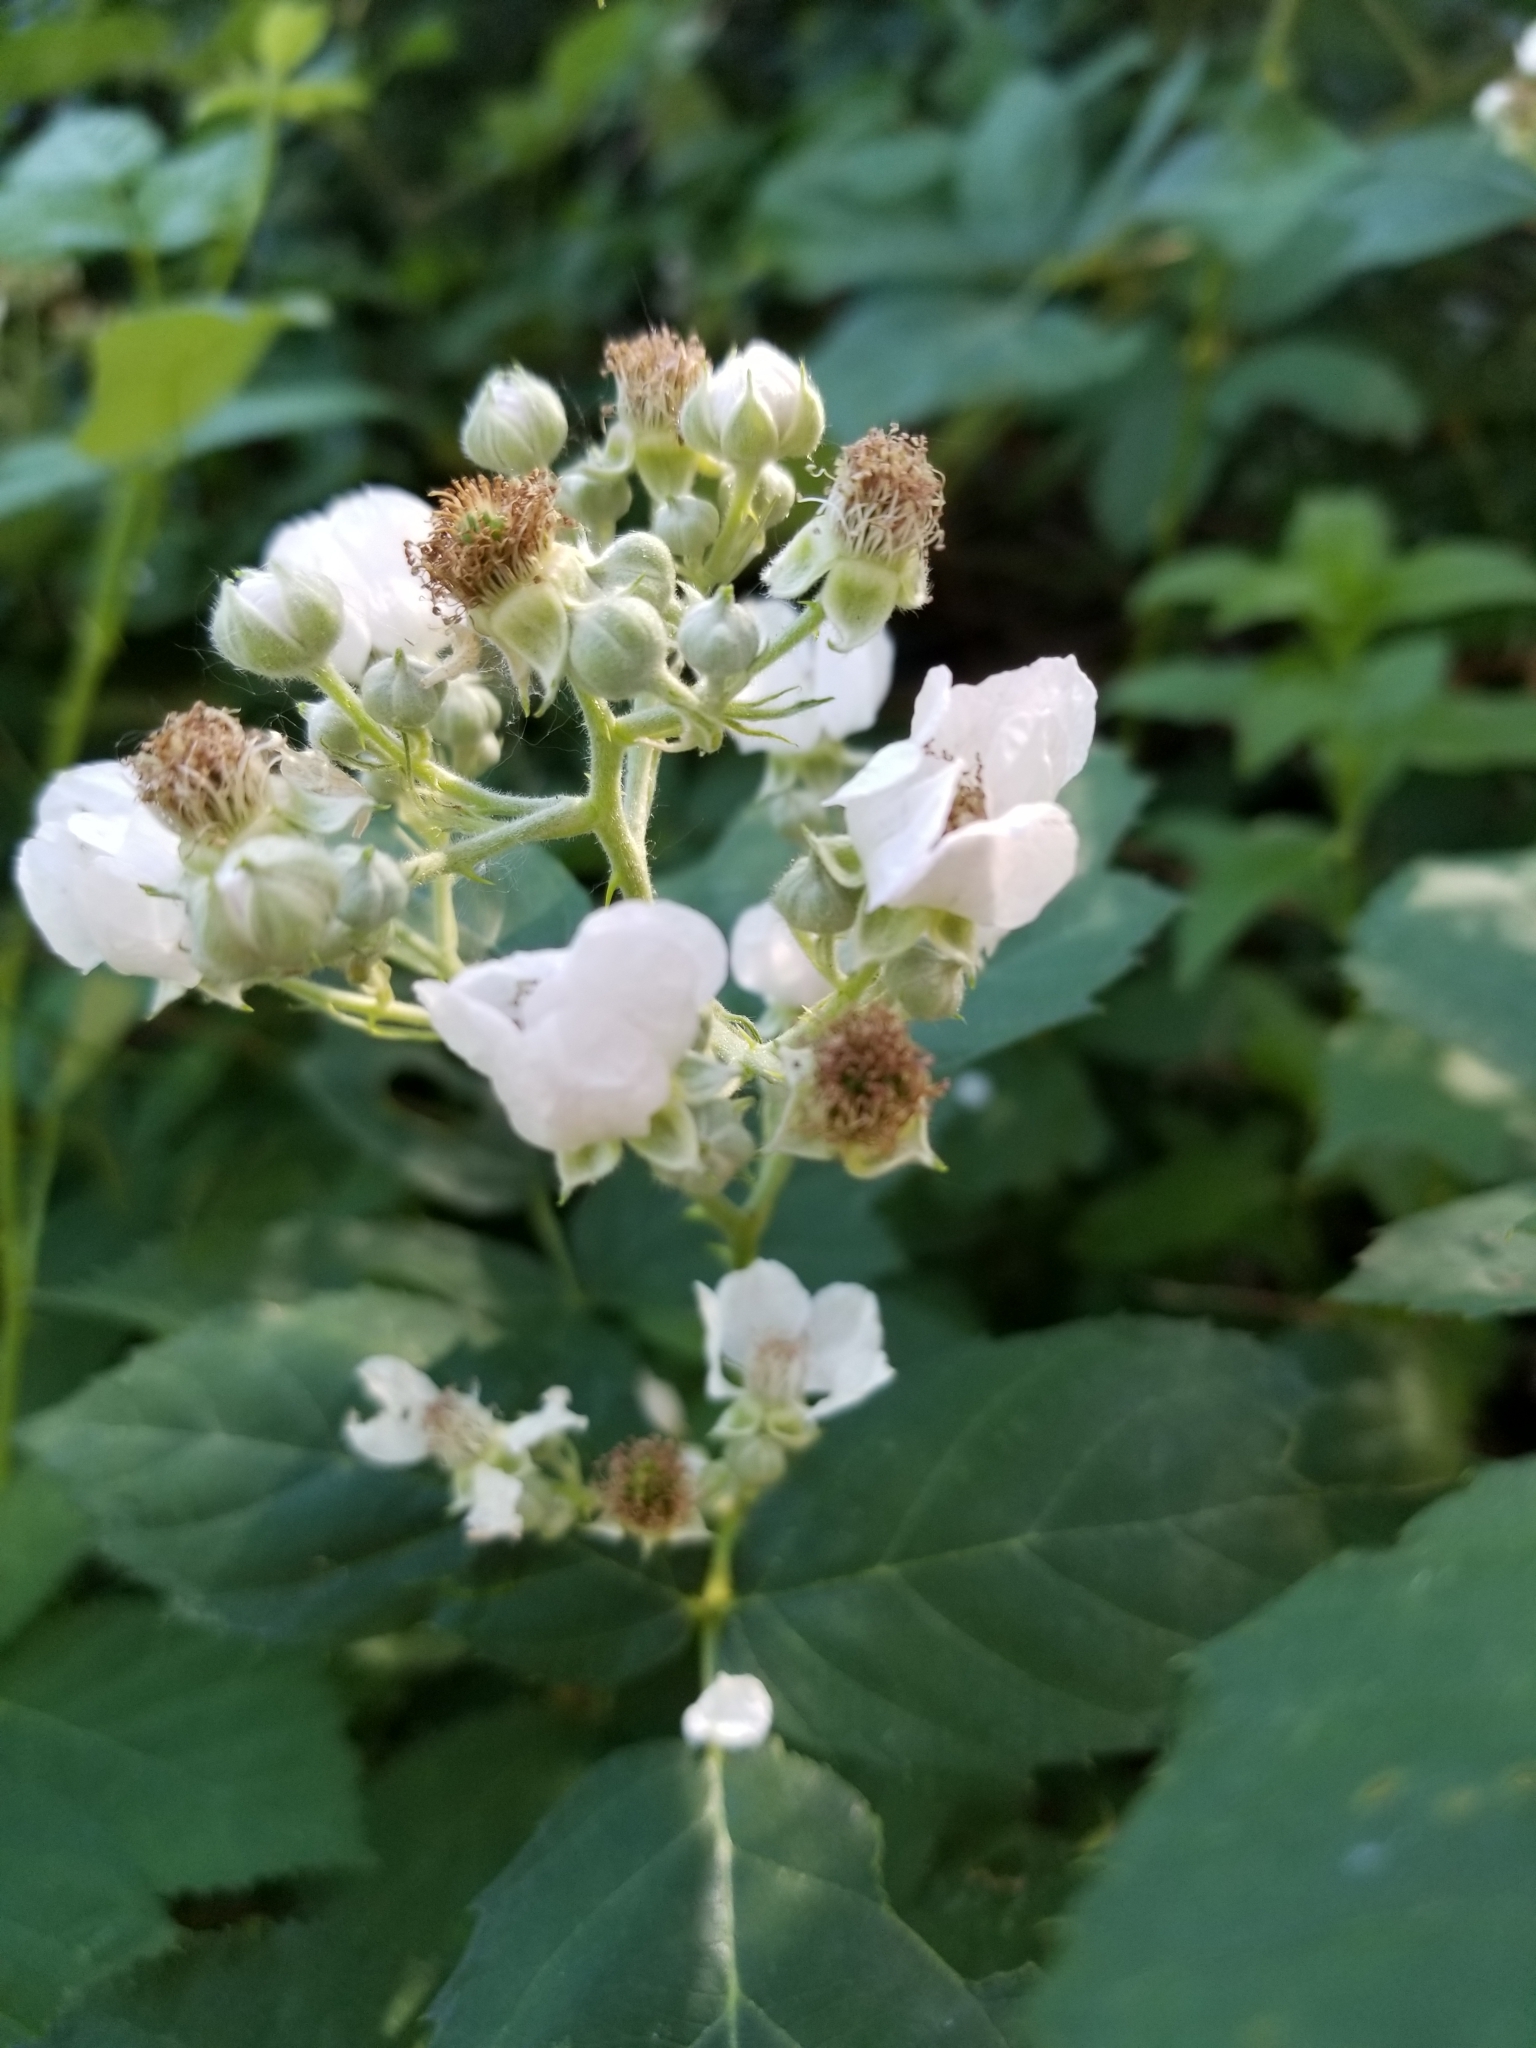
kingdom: Plantae
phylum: Tracheophyta
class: Magnoliopsida
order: Rosales
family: Rosaceae
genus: Rubus
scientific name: Rubus armeniacus
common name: Himalayan blackberry
